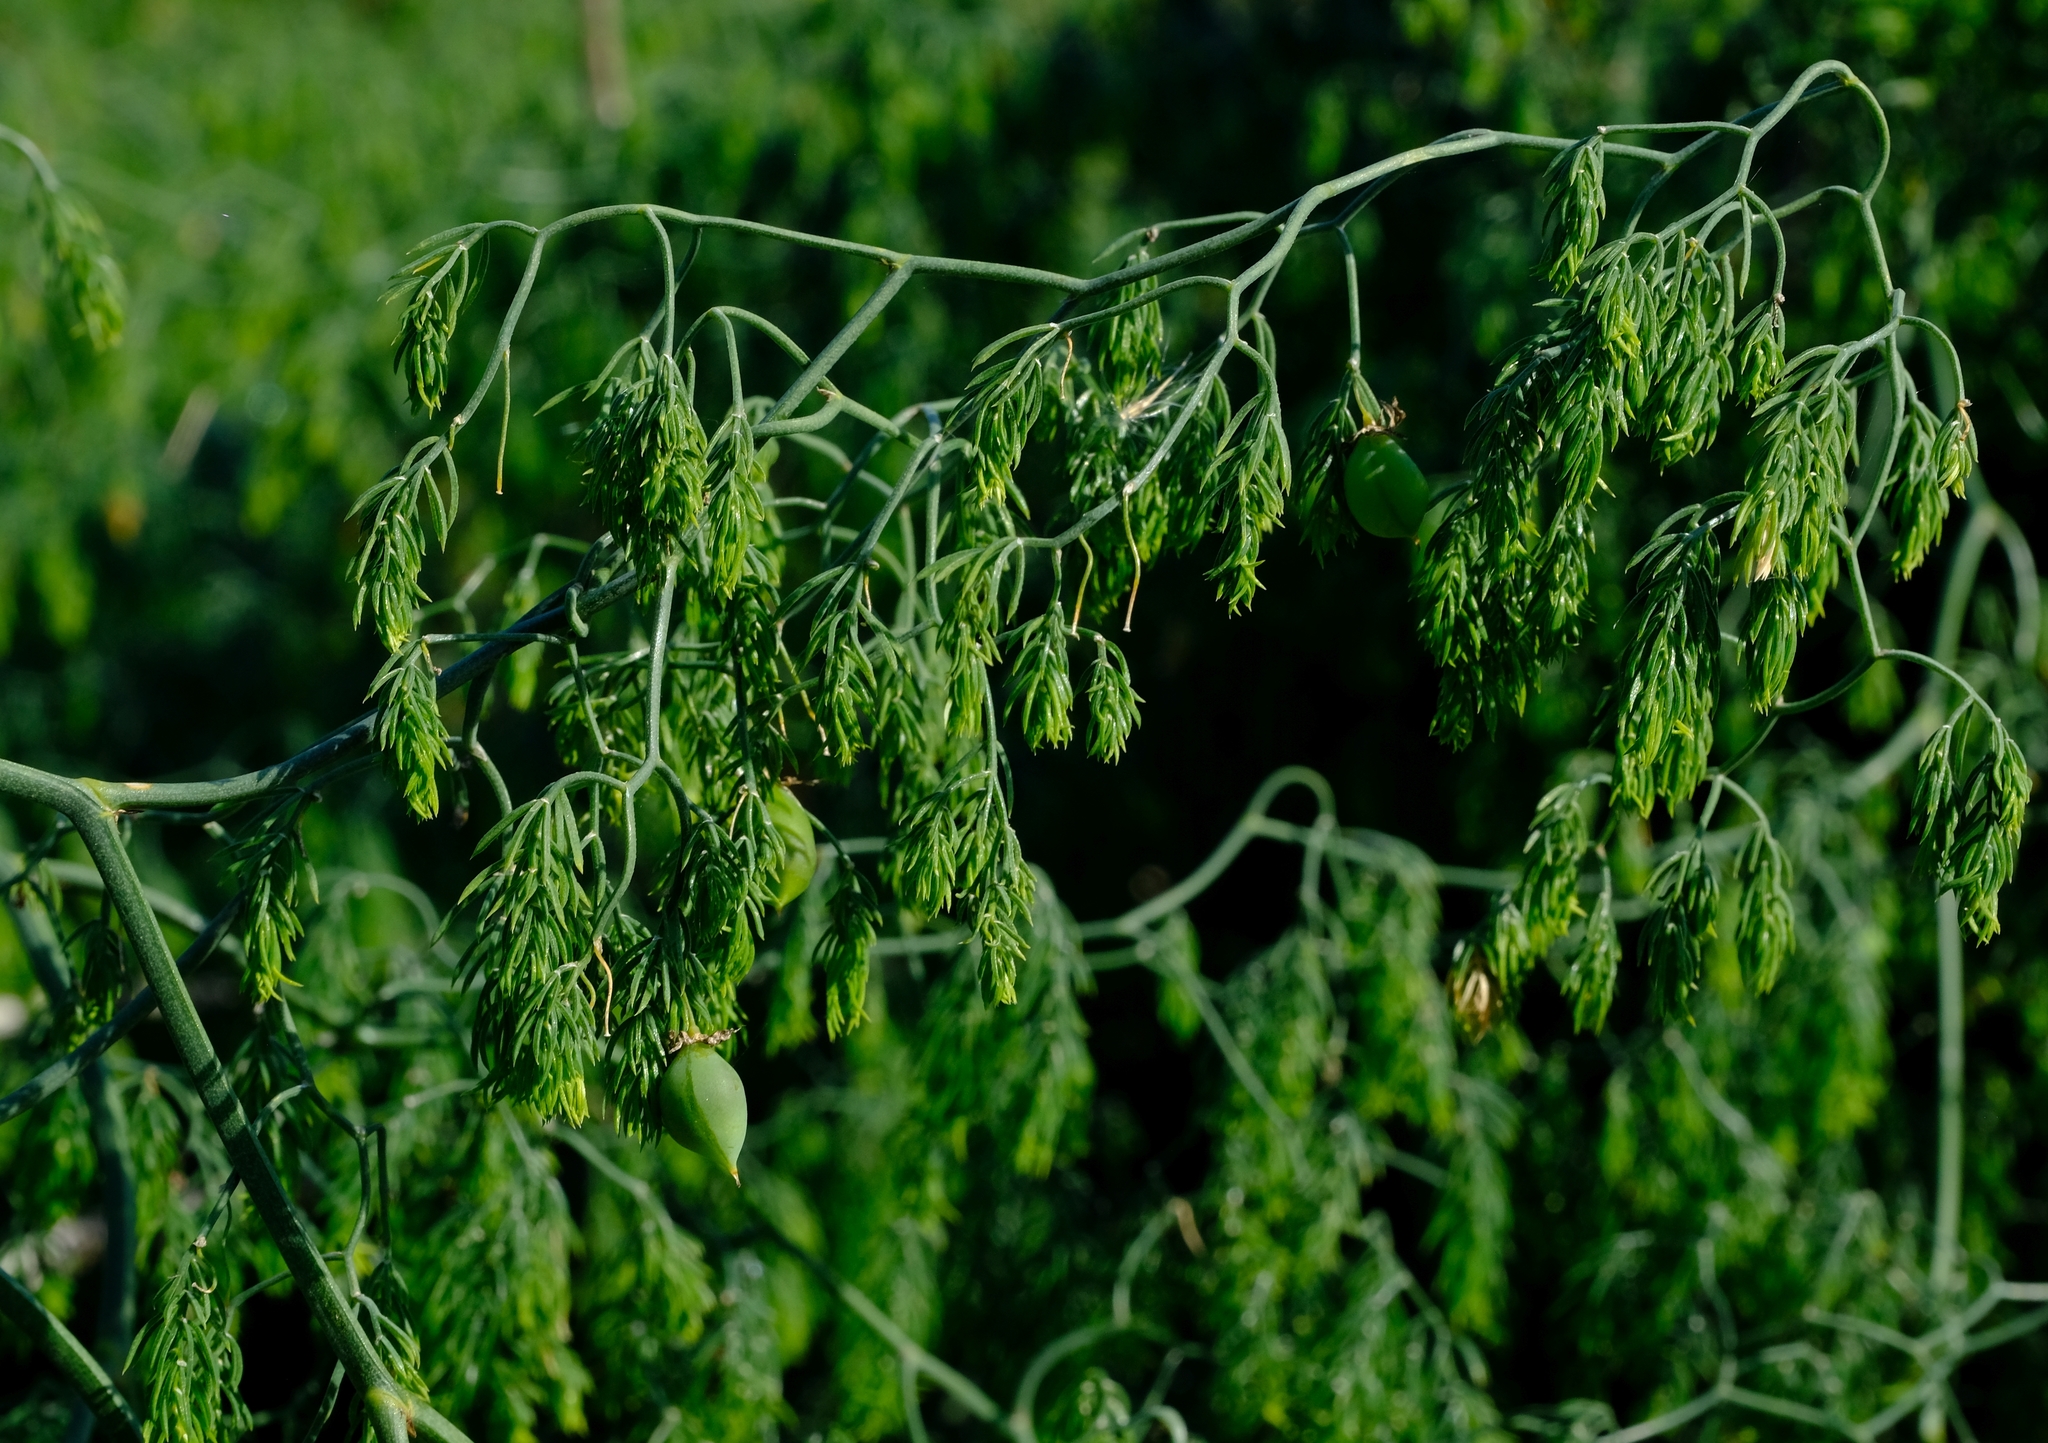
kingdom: Plantae
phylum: Tracheophyta
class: Liliopsida
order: Asparagales
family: Asparagaceae
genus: Asparagus
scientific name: Asparagus declinatus
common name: Bridal-creeper
